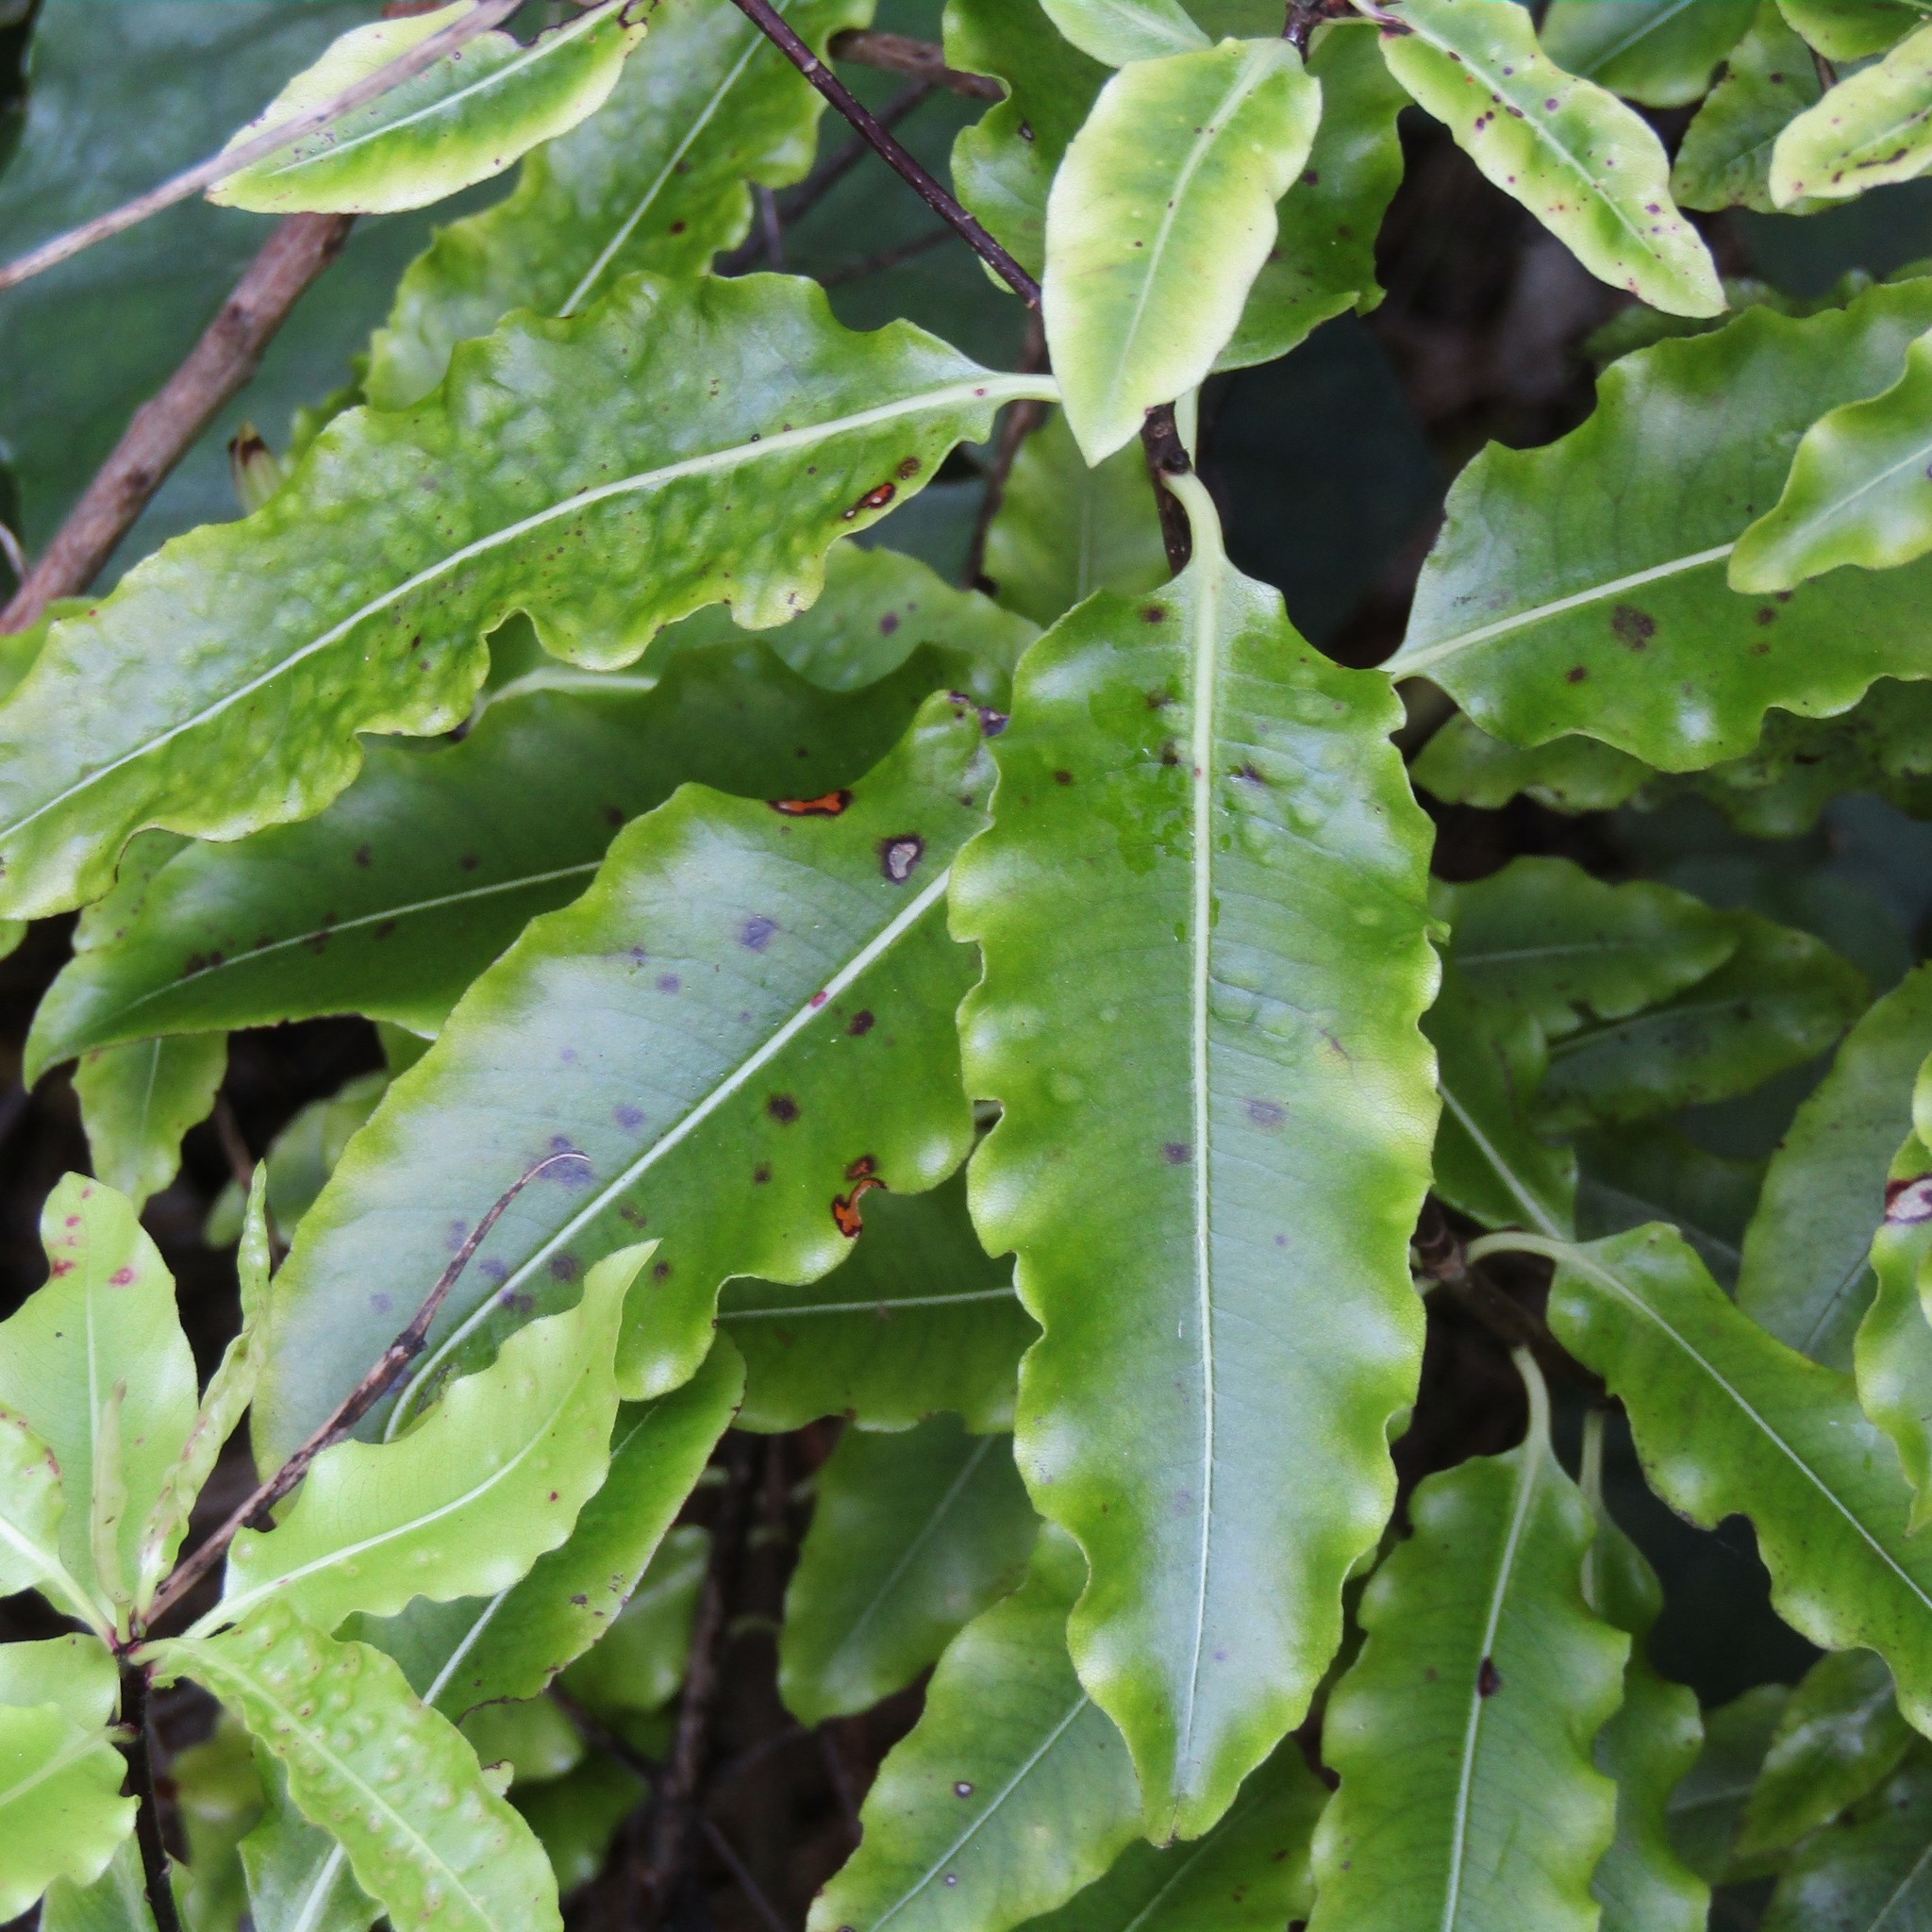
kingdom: Plantae
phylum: Tracheophyta
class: Magnoliopsida
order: Apiales
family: Pittosporaceae
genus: Pittosporum
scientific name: Pittosporum eugenioides
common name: Lemonwood
